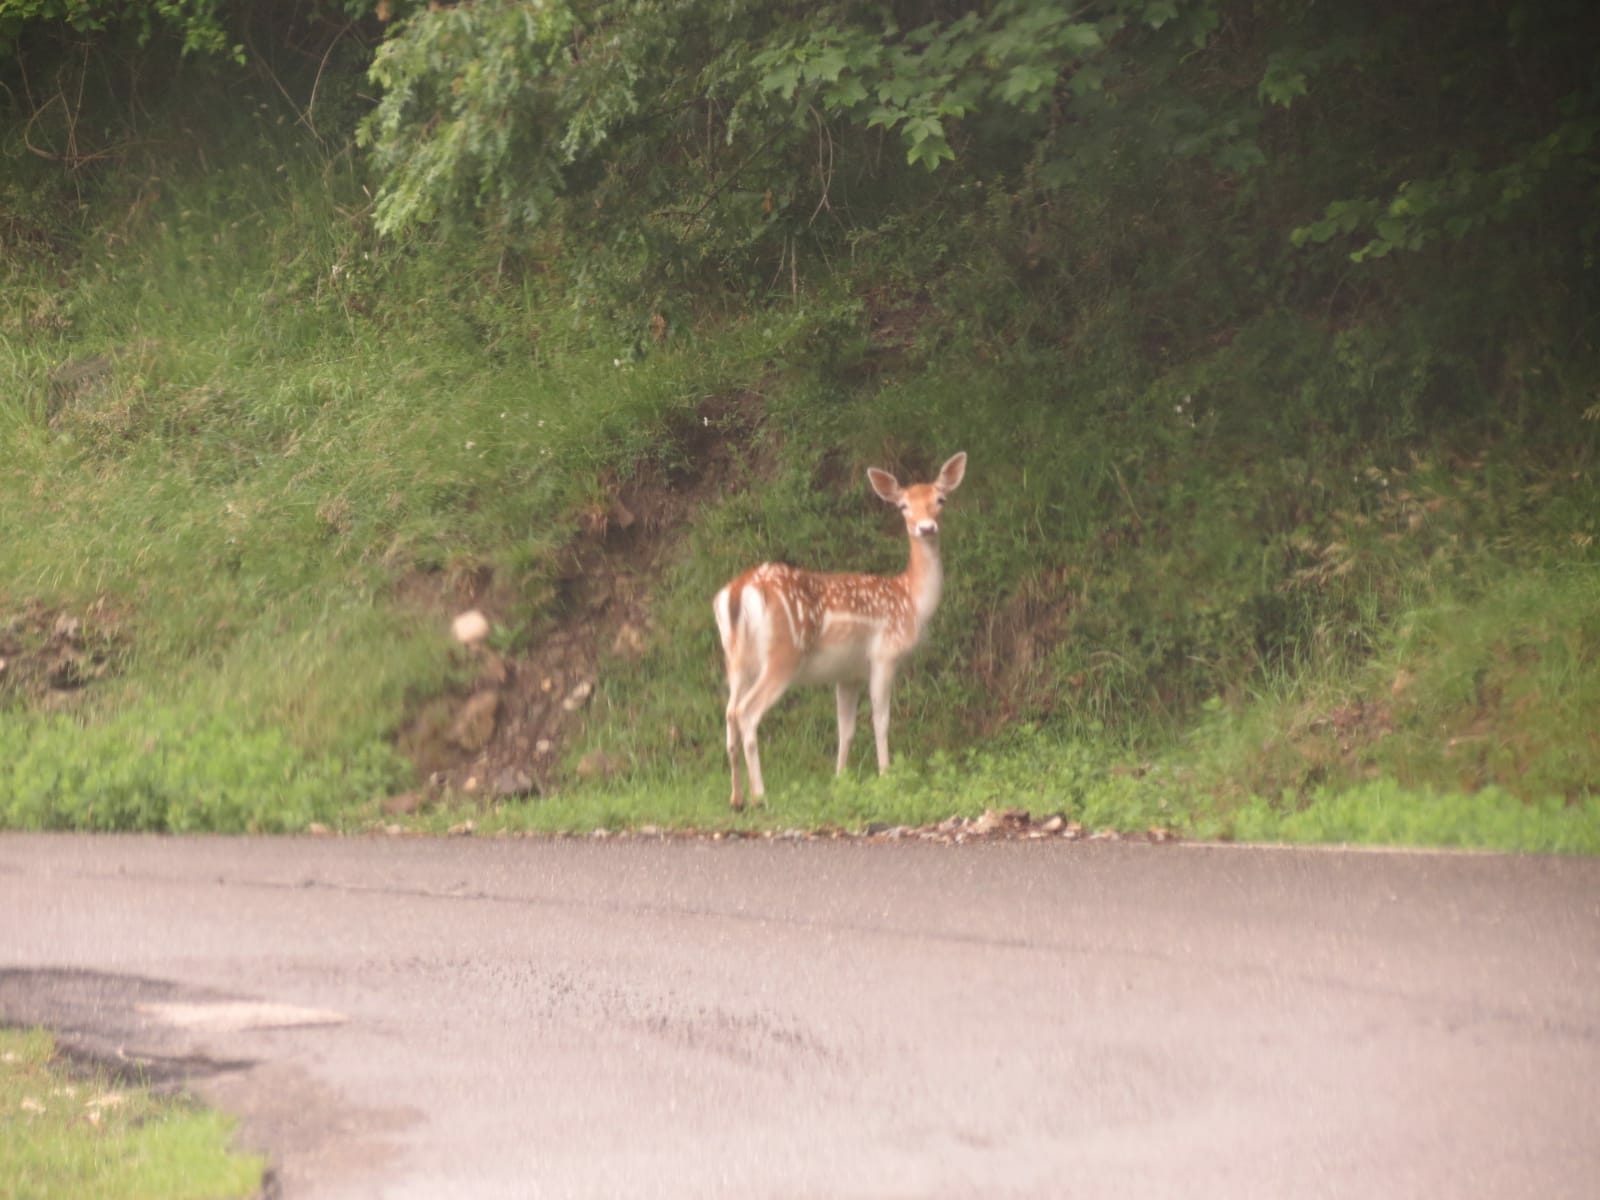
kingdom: Animalia
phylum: Chordata
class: Mammalia
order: Artiodactyla
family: Cervidae
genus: Dama
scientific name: Dama dama
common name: Fallow deer
